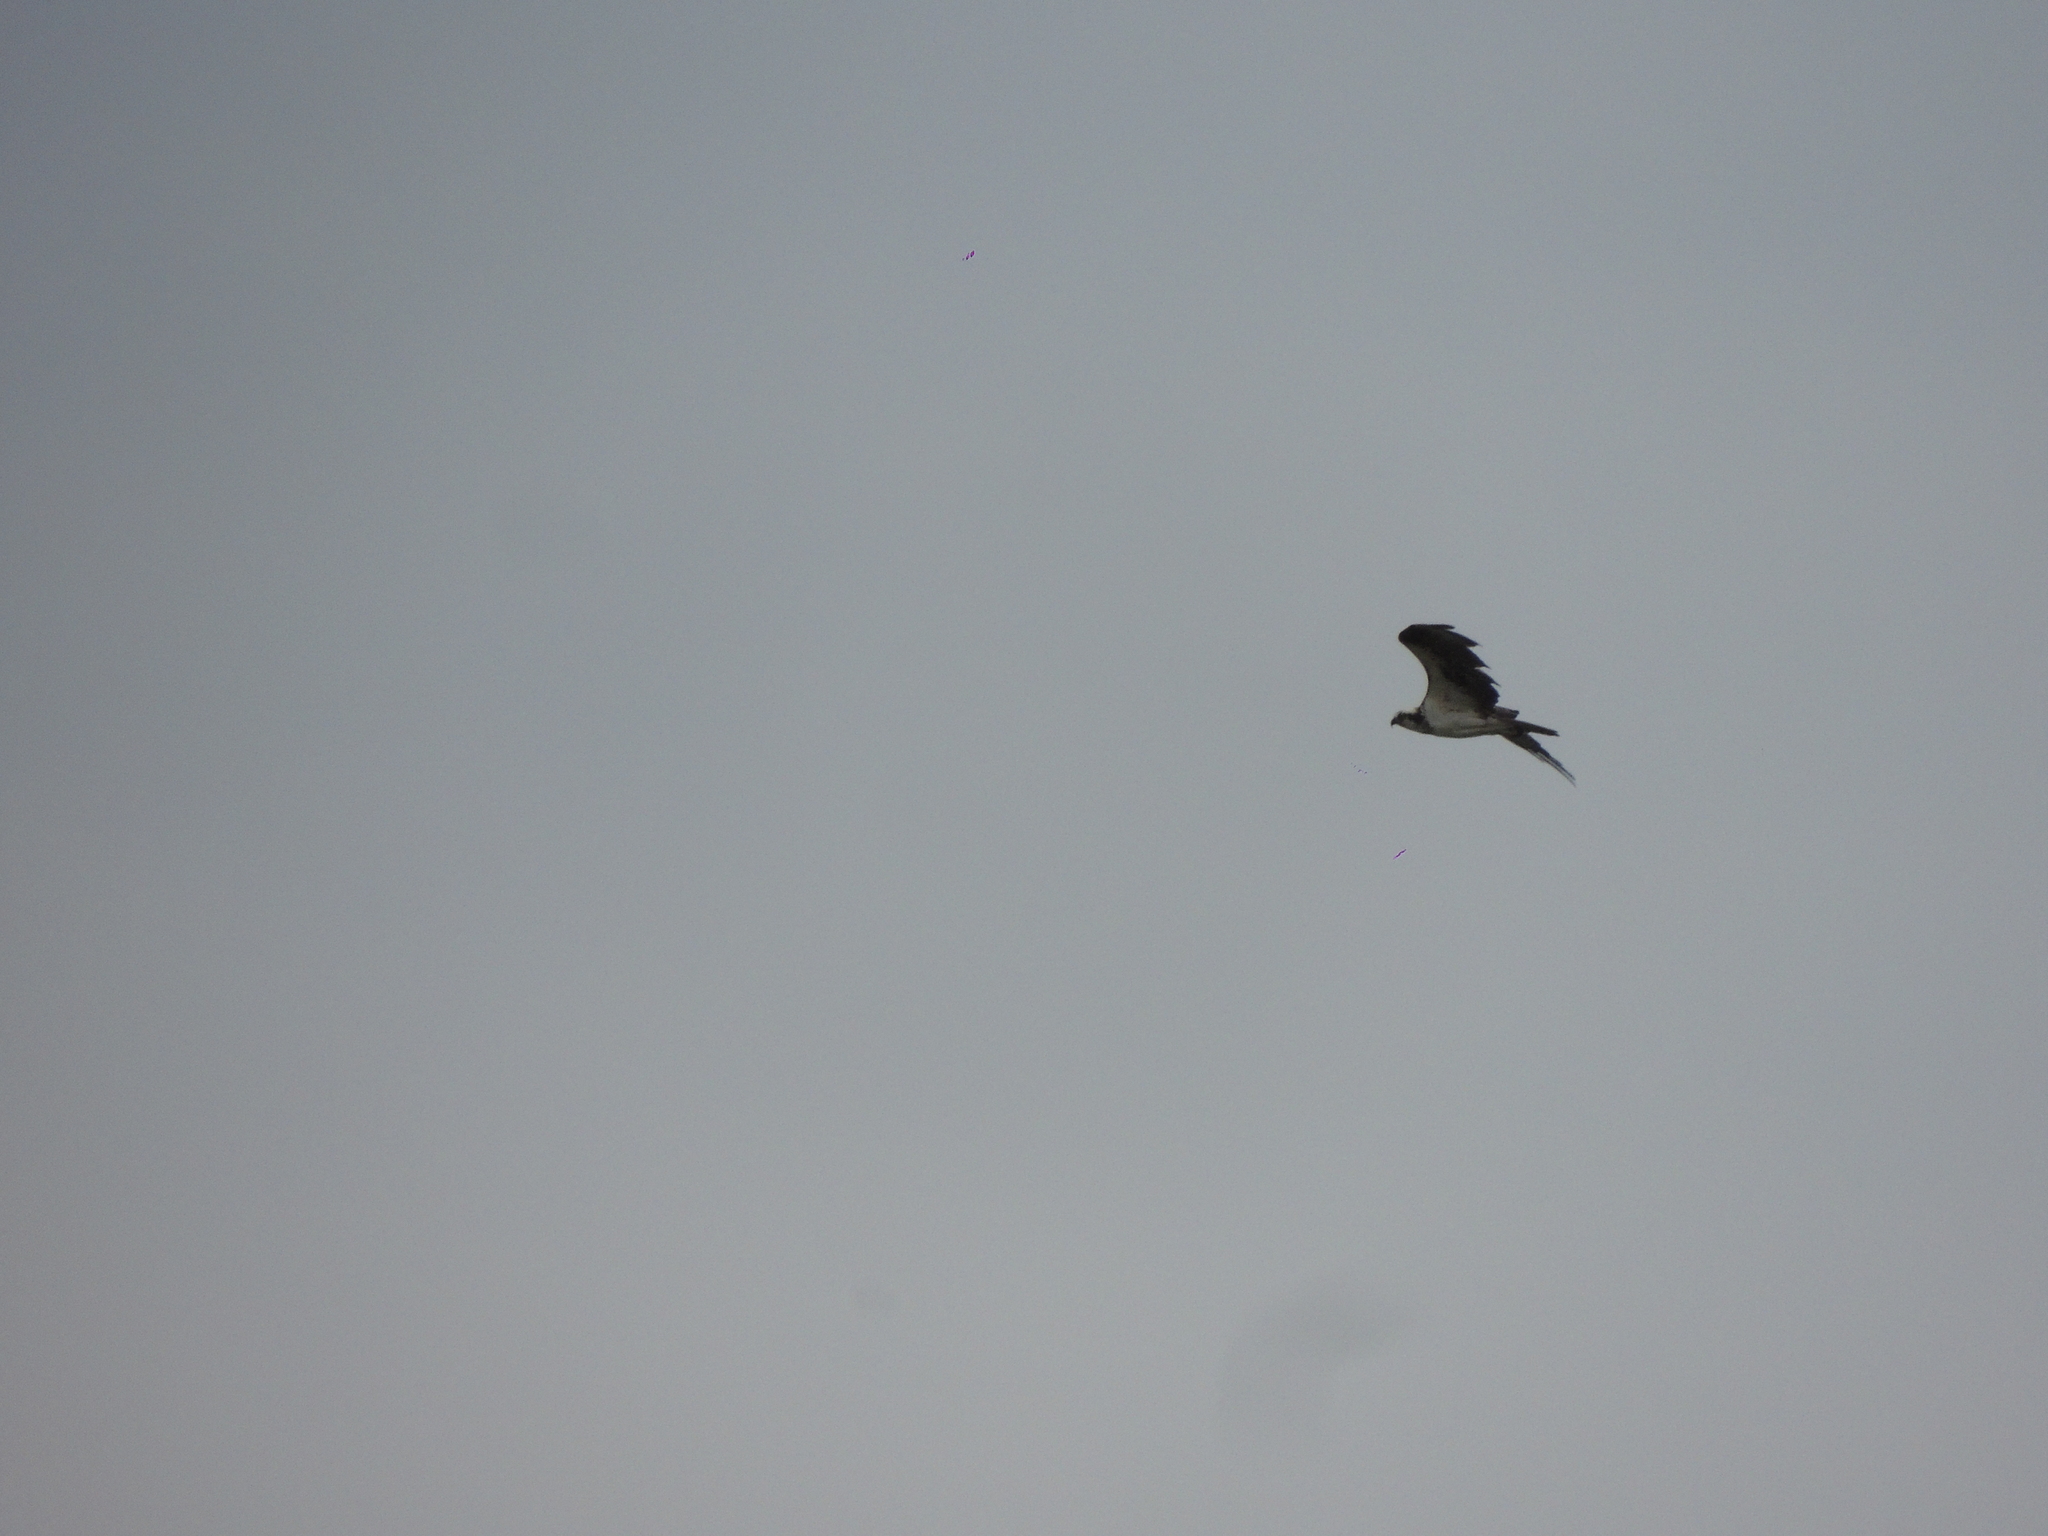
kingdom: Animalia
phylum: Chordata
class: Aves
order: Accipitriformes
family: Pandionidae
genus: Pandion
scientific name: Pandion haliaetus
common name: Osprey
